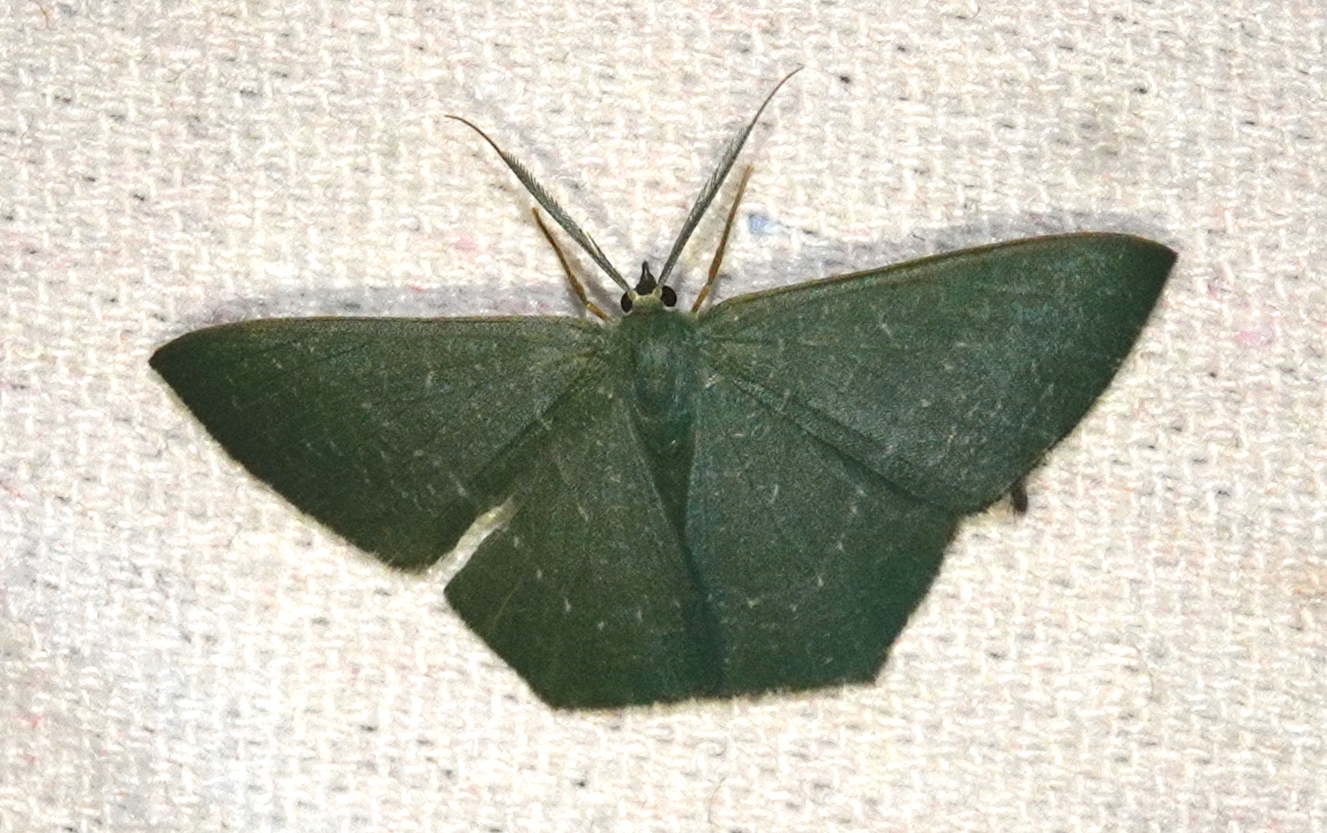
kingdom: Animalia
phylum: Arthropoda
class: Insecta
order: Lepidoptera
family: Geometridae
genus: Thalassodes
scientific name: Thalassodes immissaria
